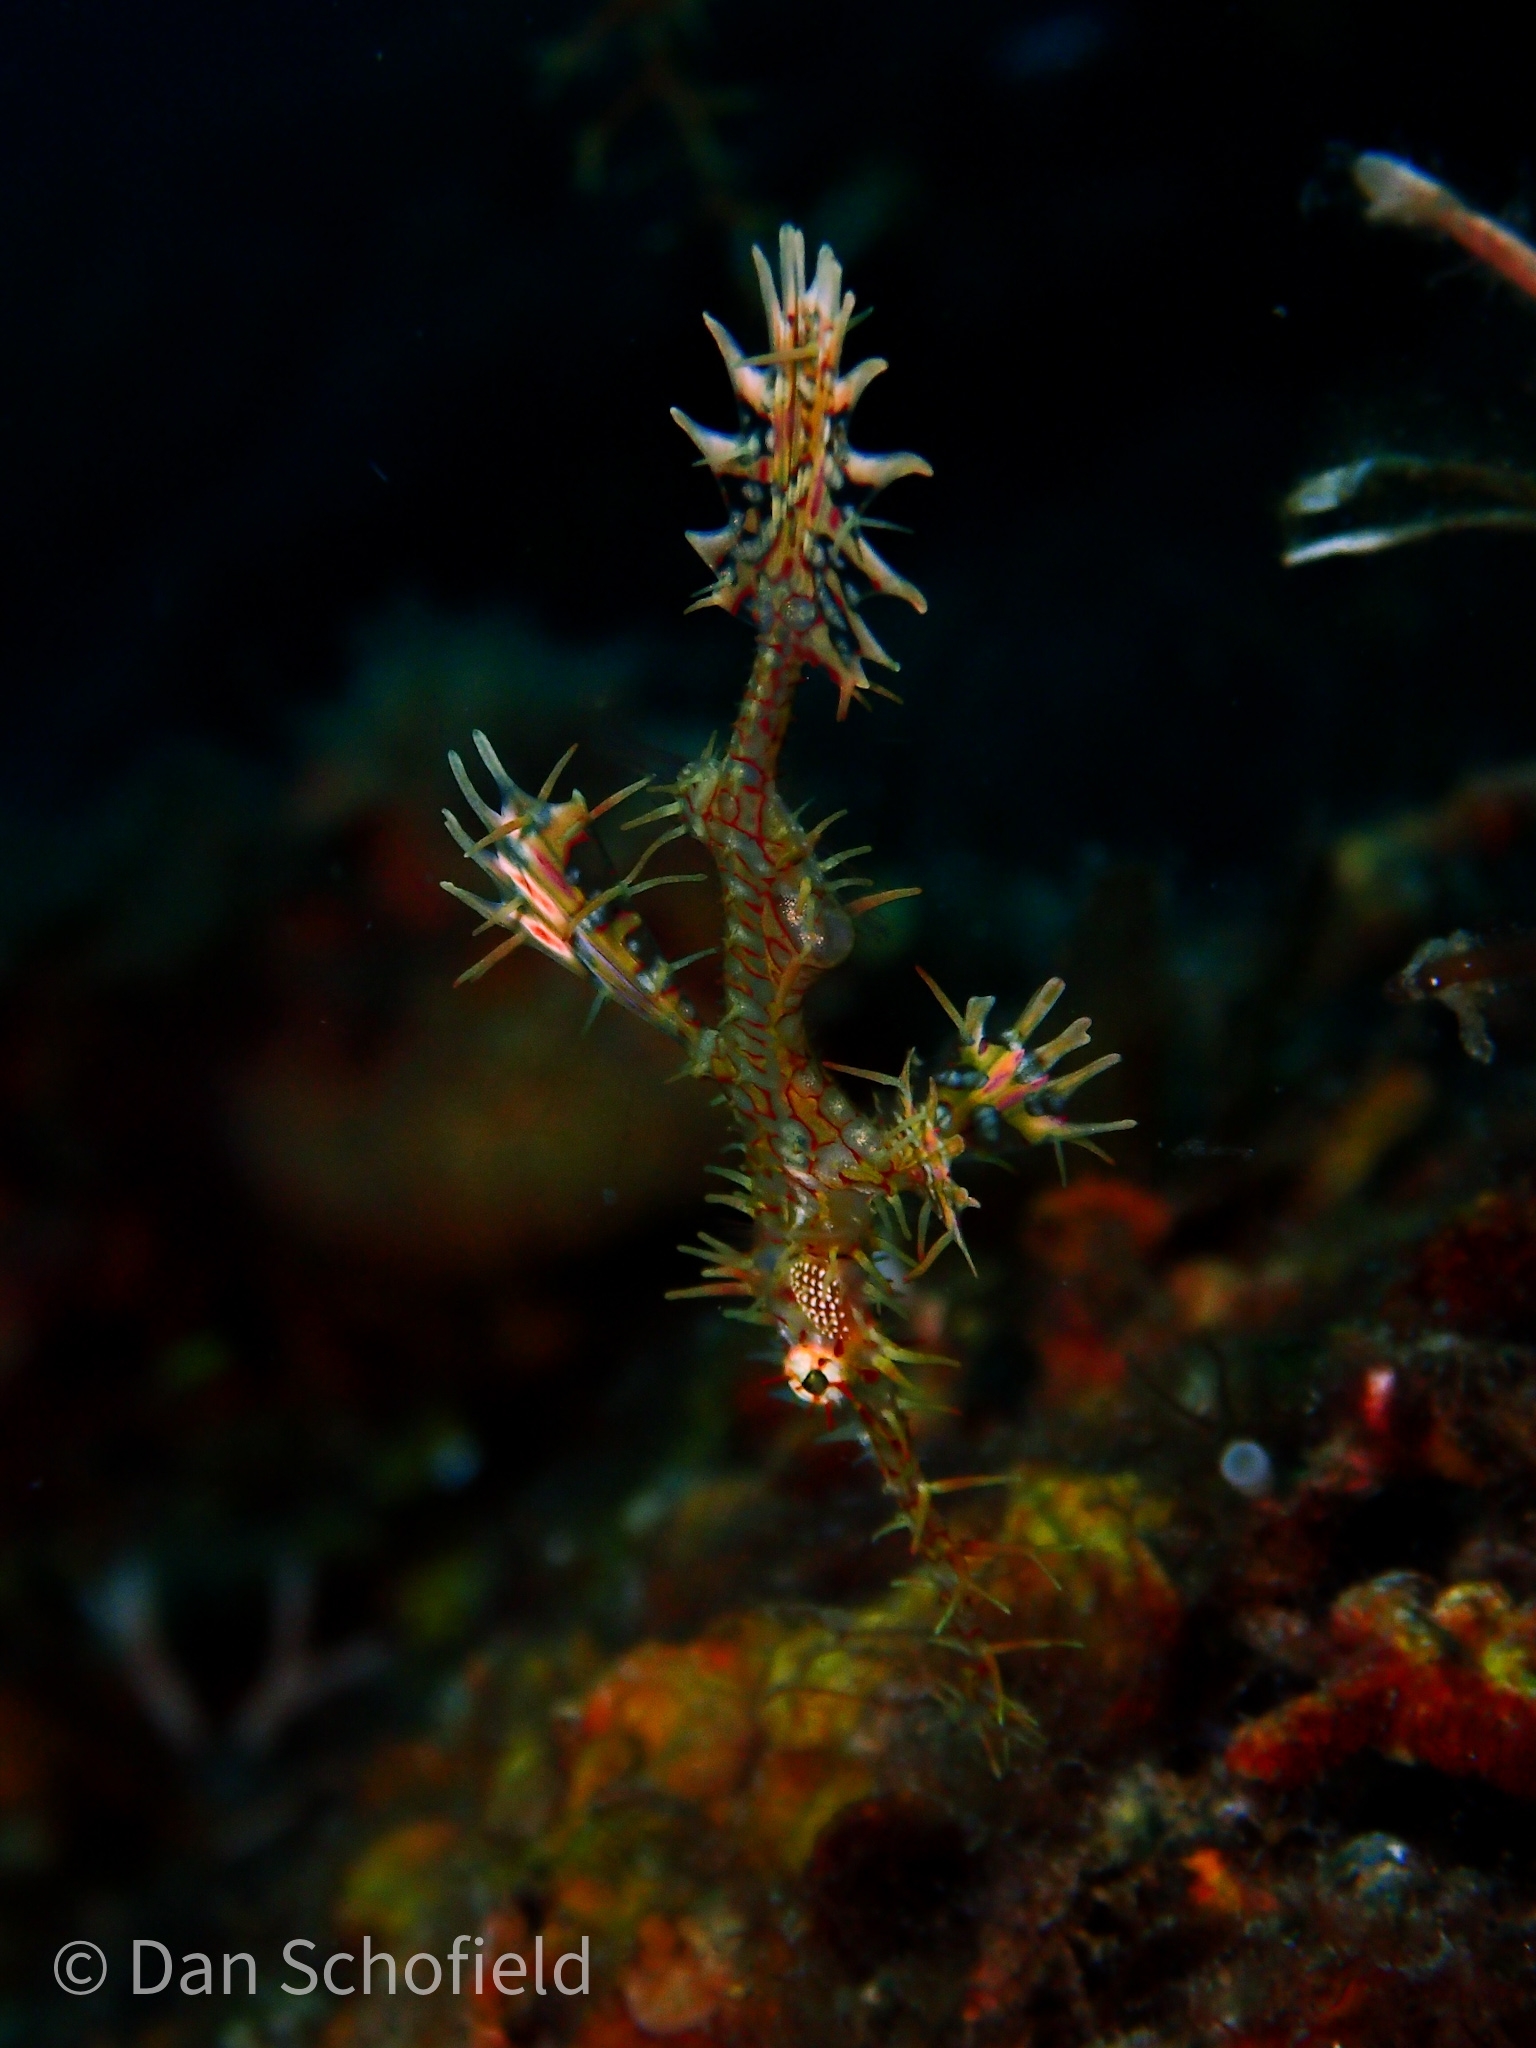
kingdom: Animalia
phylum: Chordata
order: Syngnathiformes
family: Solenostomidae
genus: Solenostomus
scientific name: Solenostomus paradoxus
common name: Ghost pipefish
